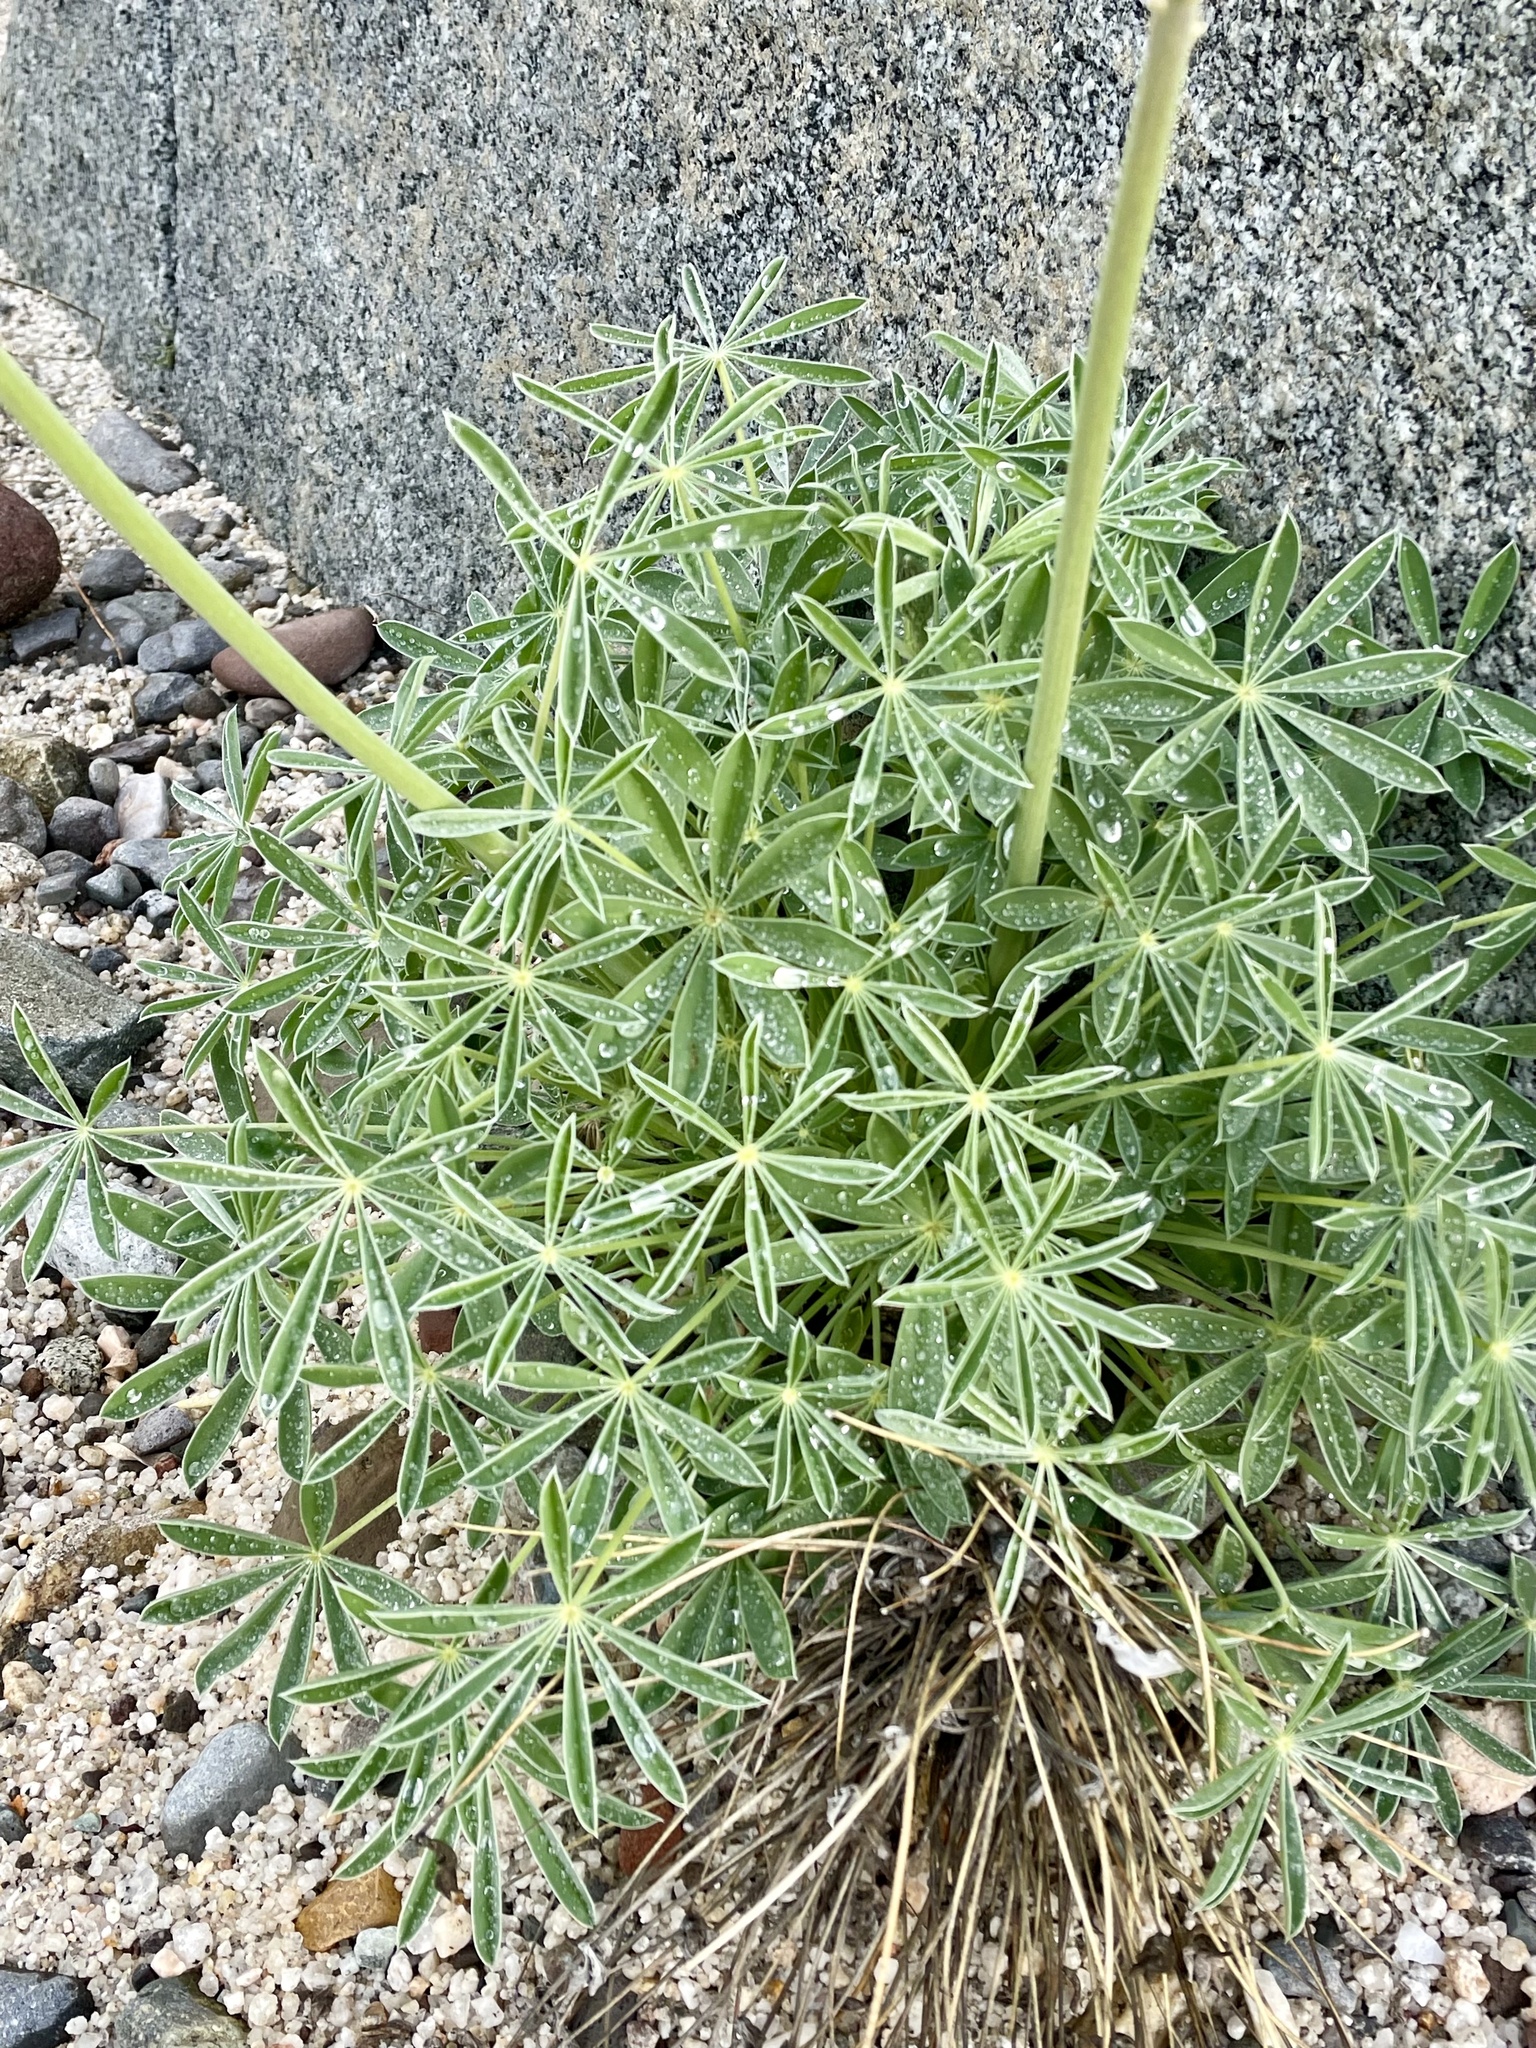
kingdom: Plantae
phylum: Tracheophyta
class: Magnoliopsida
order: Fabales
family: Fabaceae
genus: Lupinus
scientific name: Lupinus excubitus
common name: Grape soda lupine
